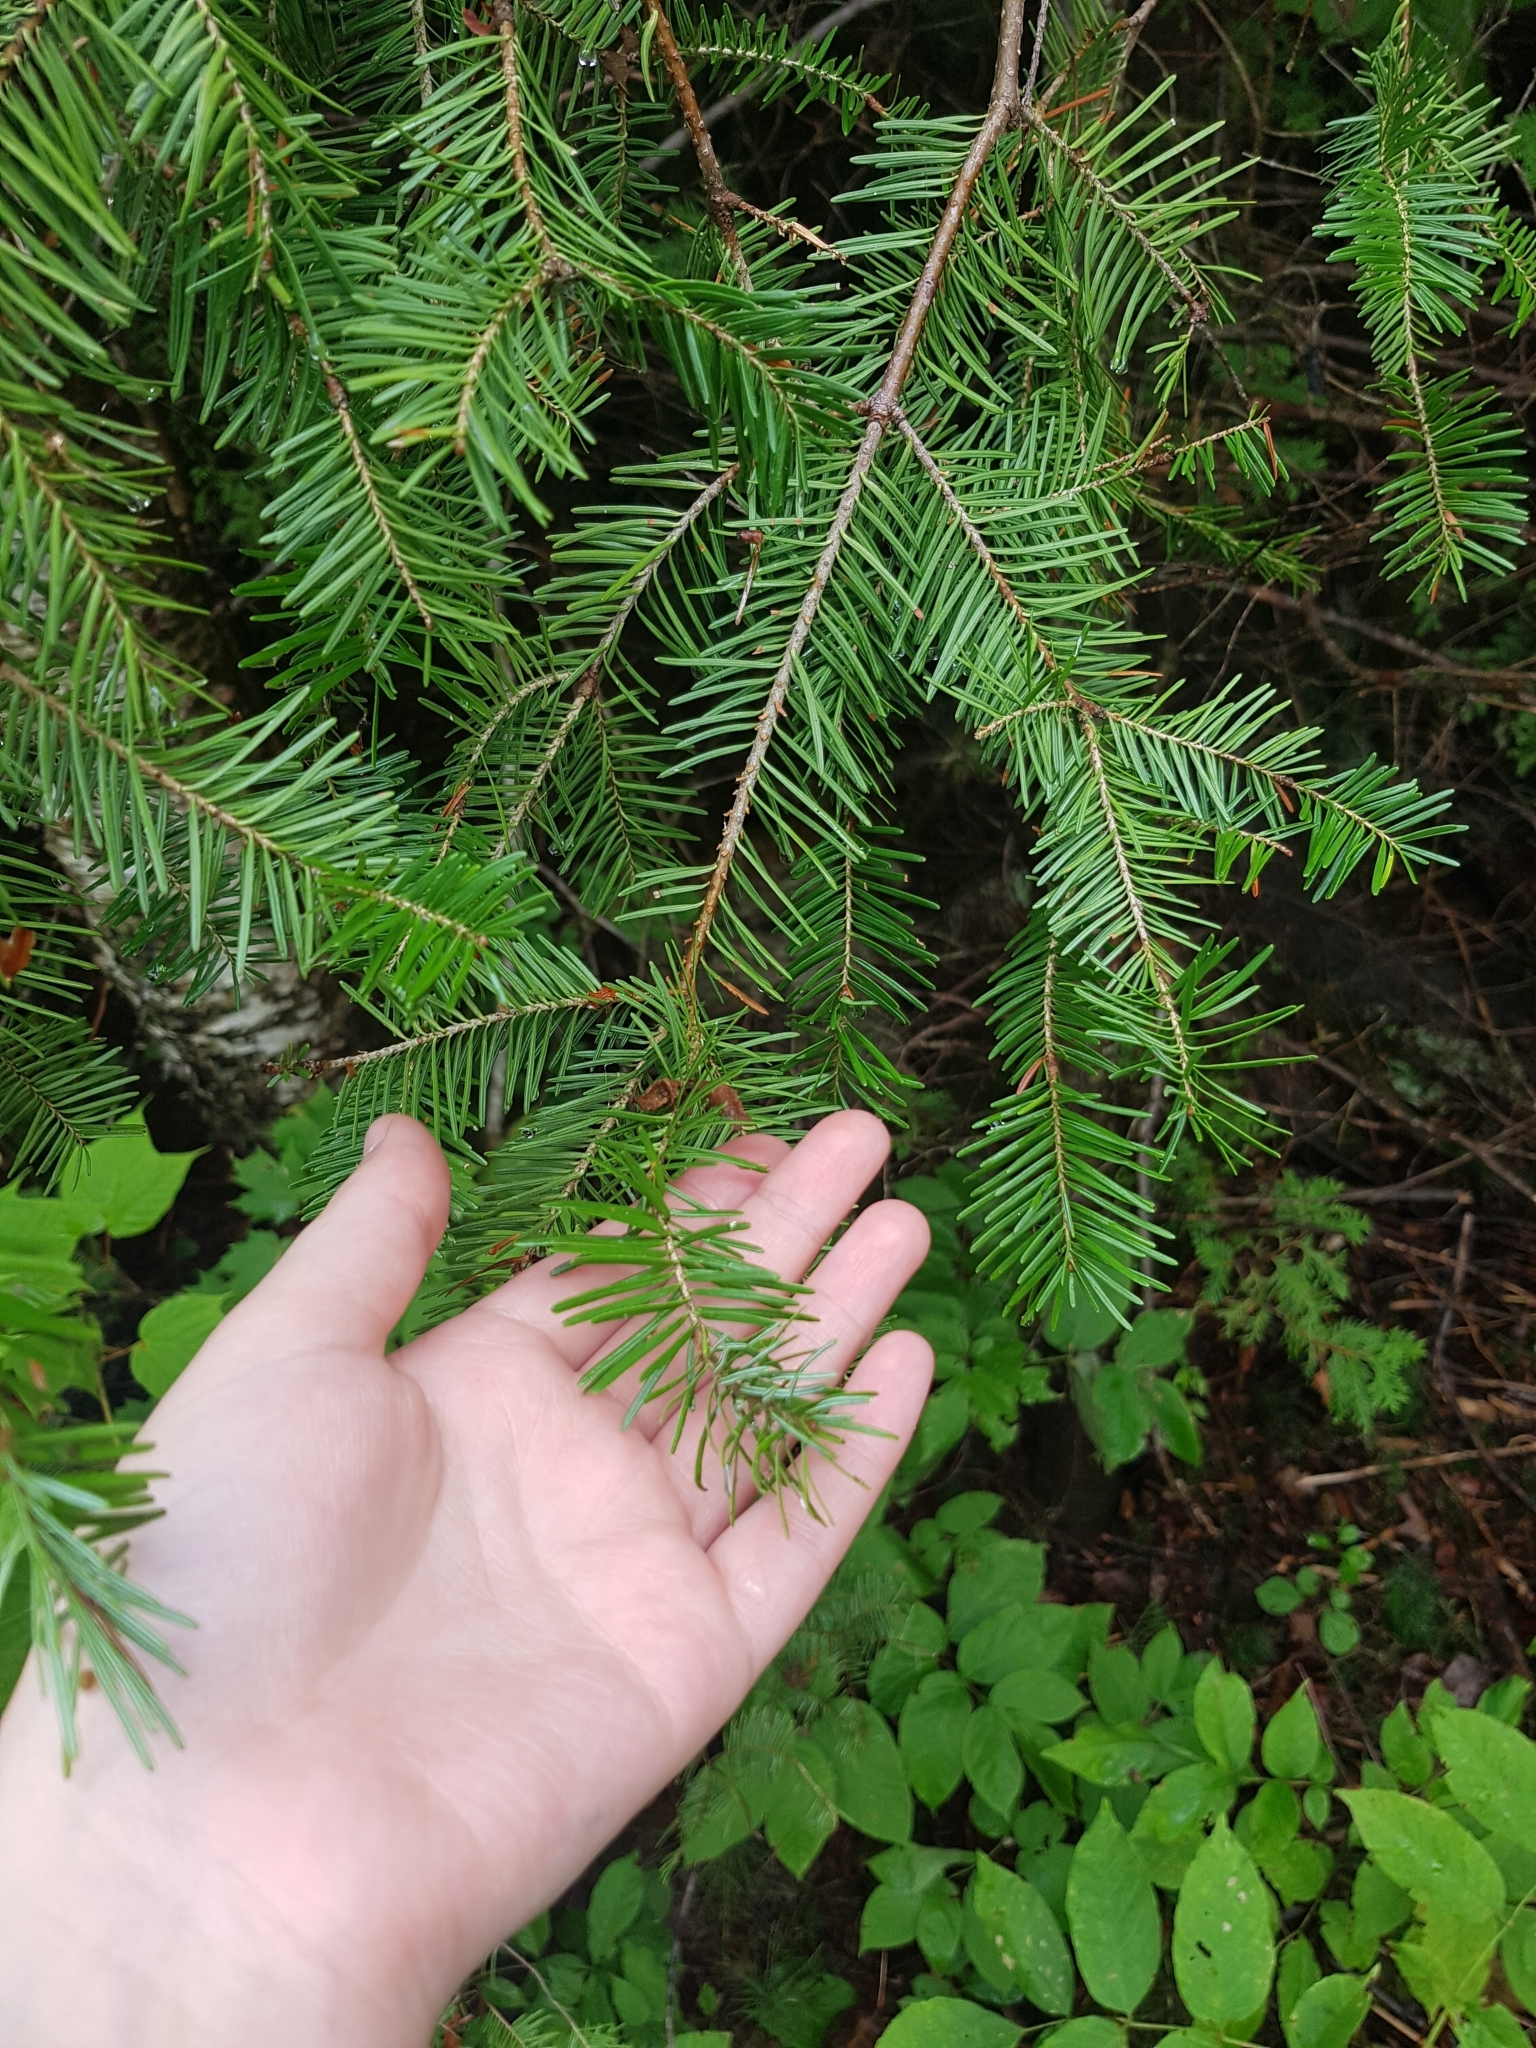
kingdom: Plantae
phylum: Tracheophyta
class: Pinopsida
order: Pinales
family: Pinaceae
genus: Abies
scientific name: Abies balsamea
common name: Balsam fir
